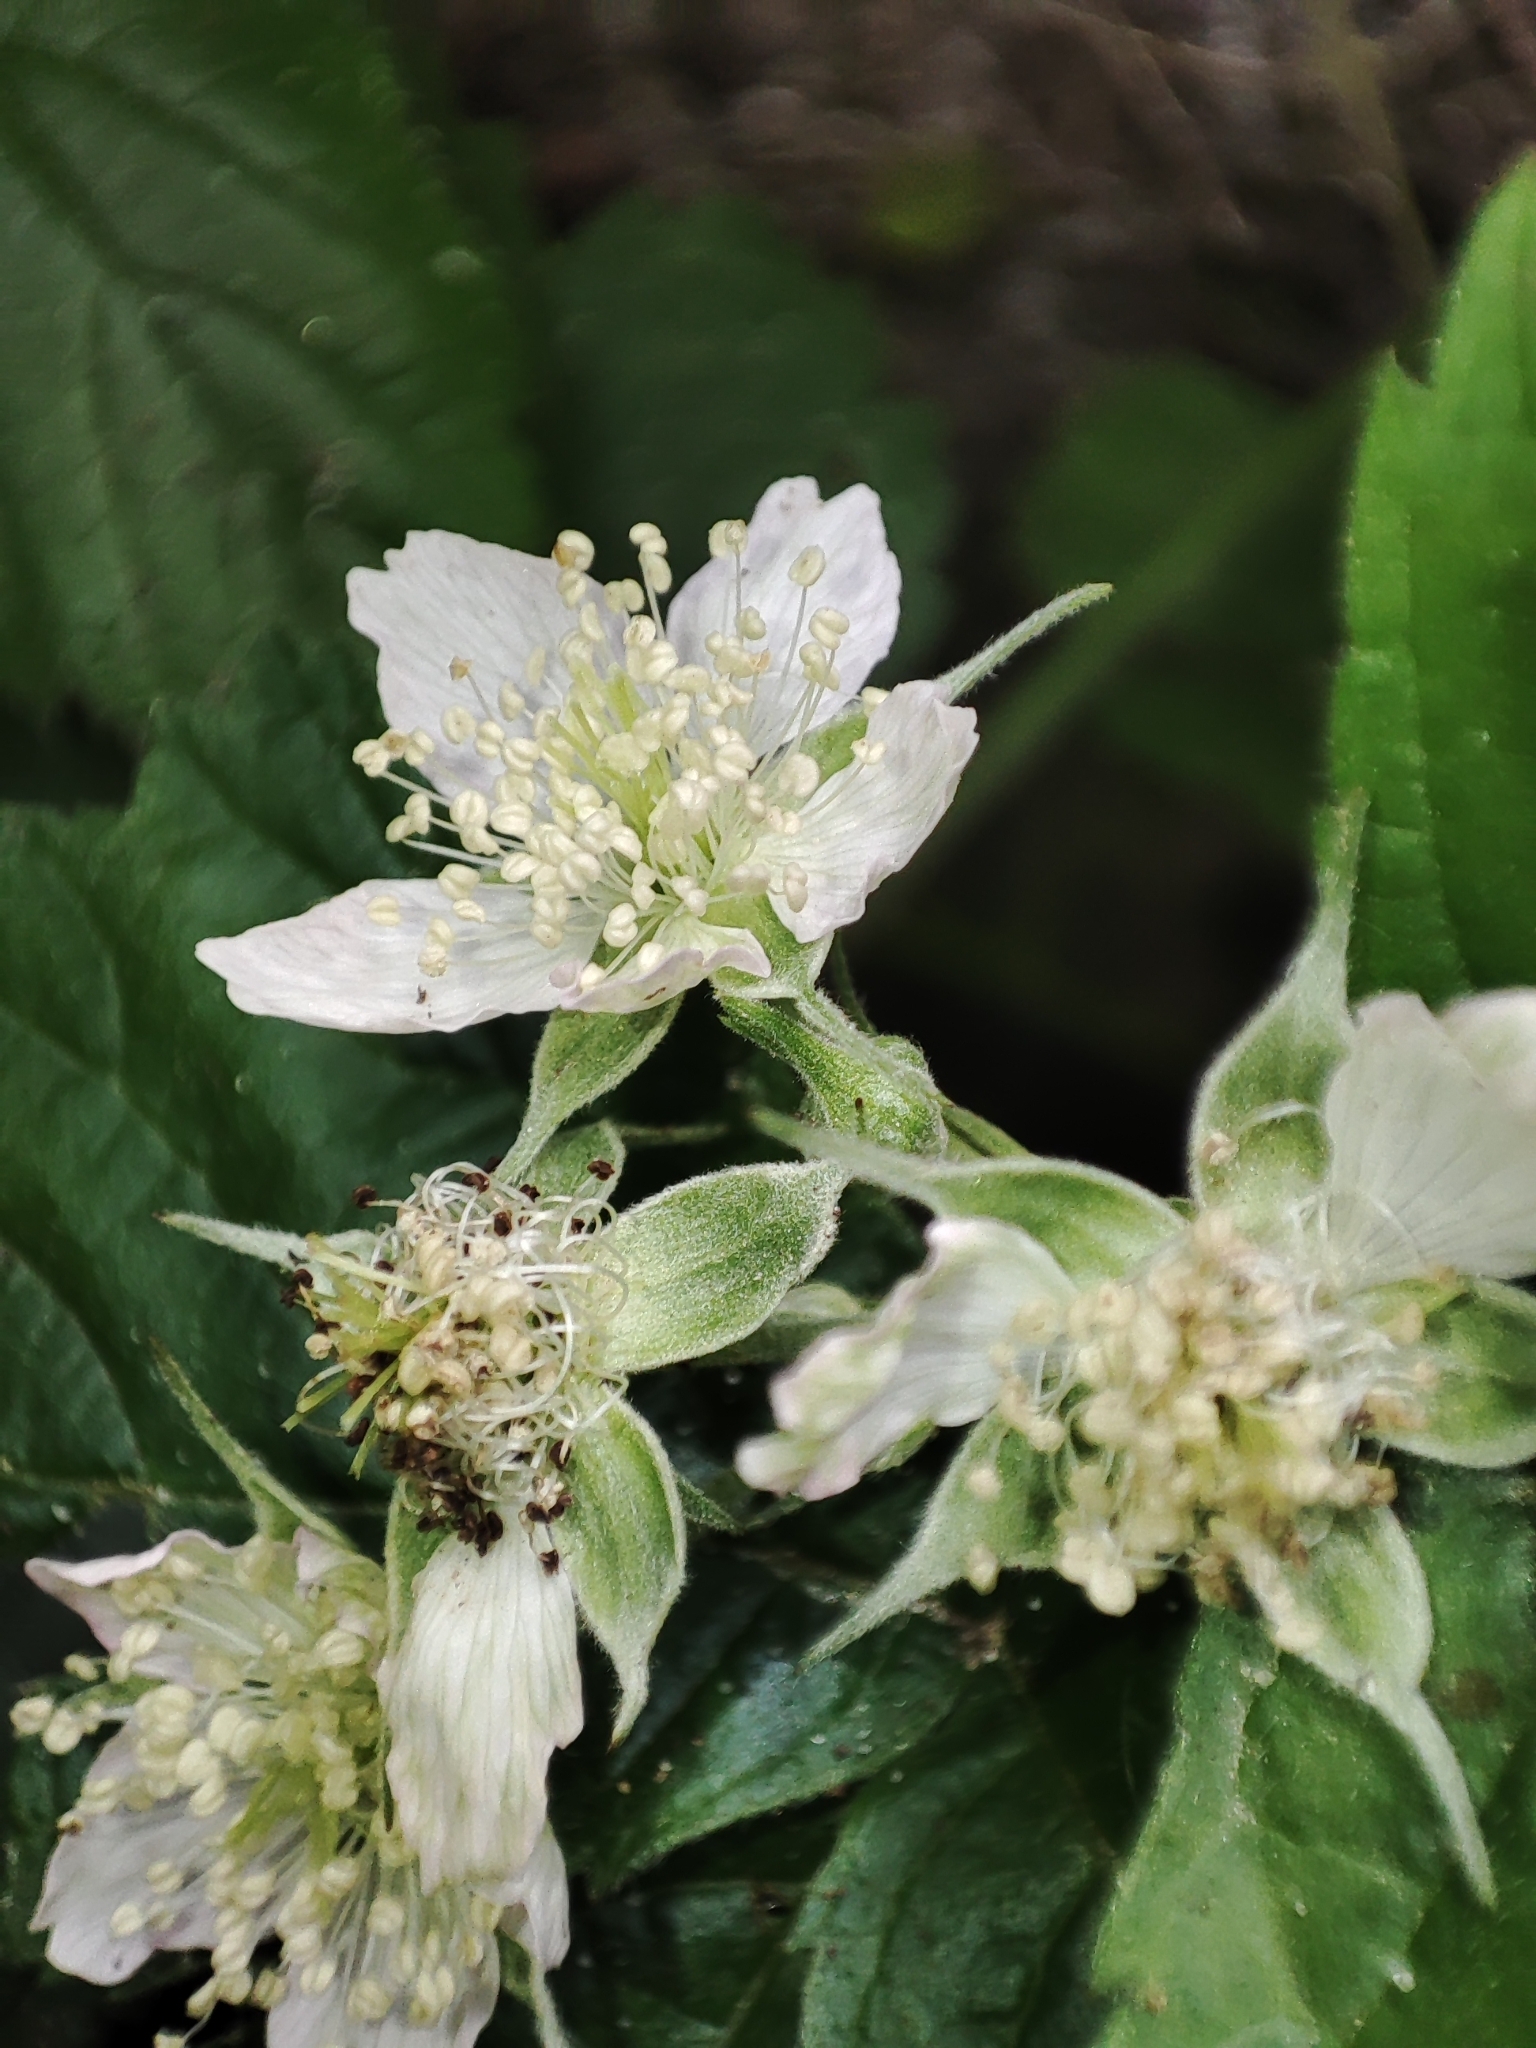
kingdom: Plantae
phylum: Tracheophyta
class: Magnoliopsida
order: Rosales
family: Rosaceae
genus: Rubus
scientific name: Rubus caesius
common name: Dewberry
